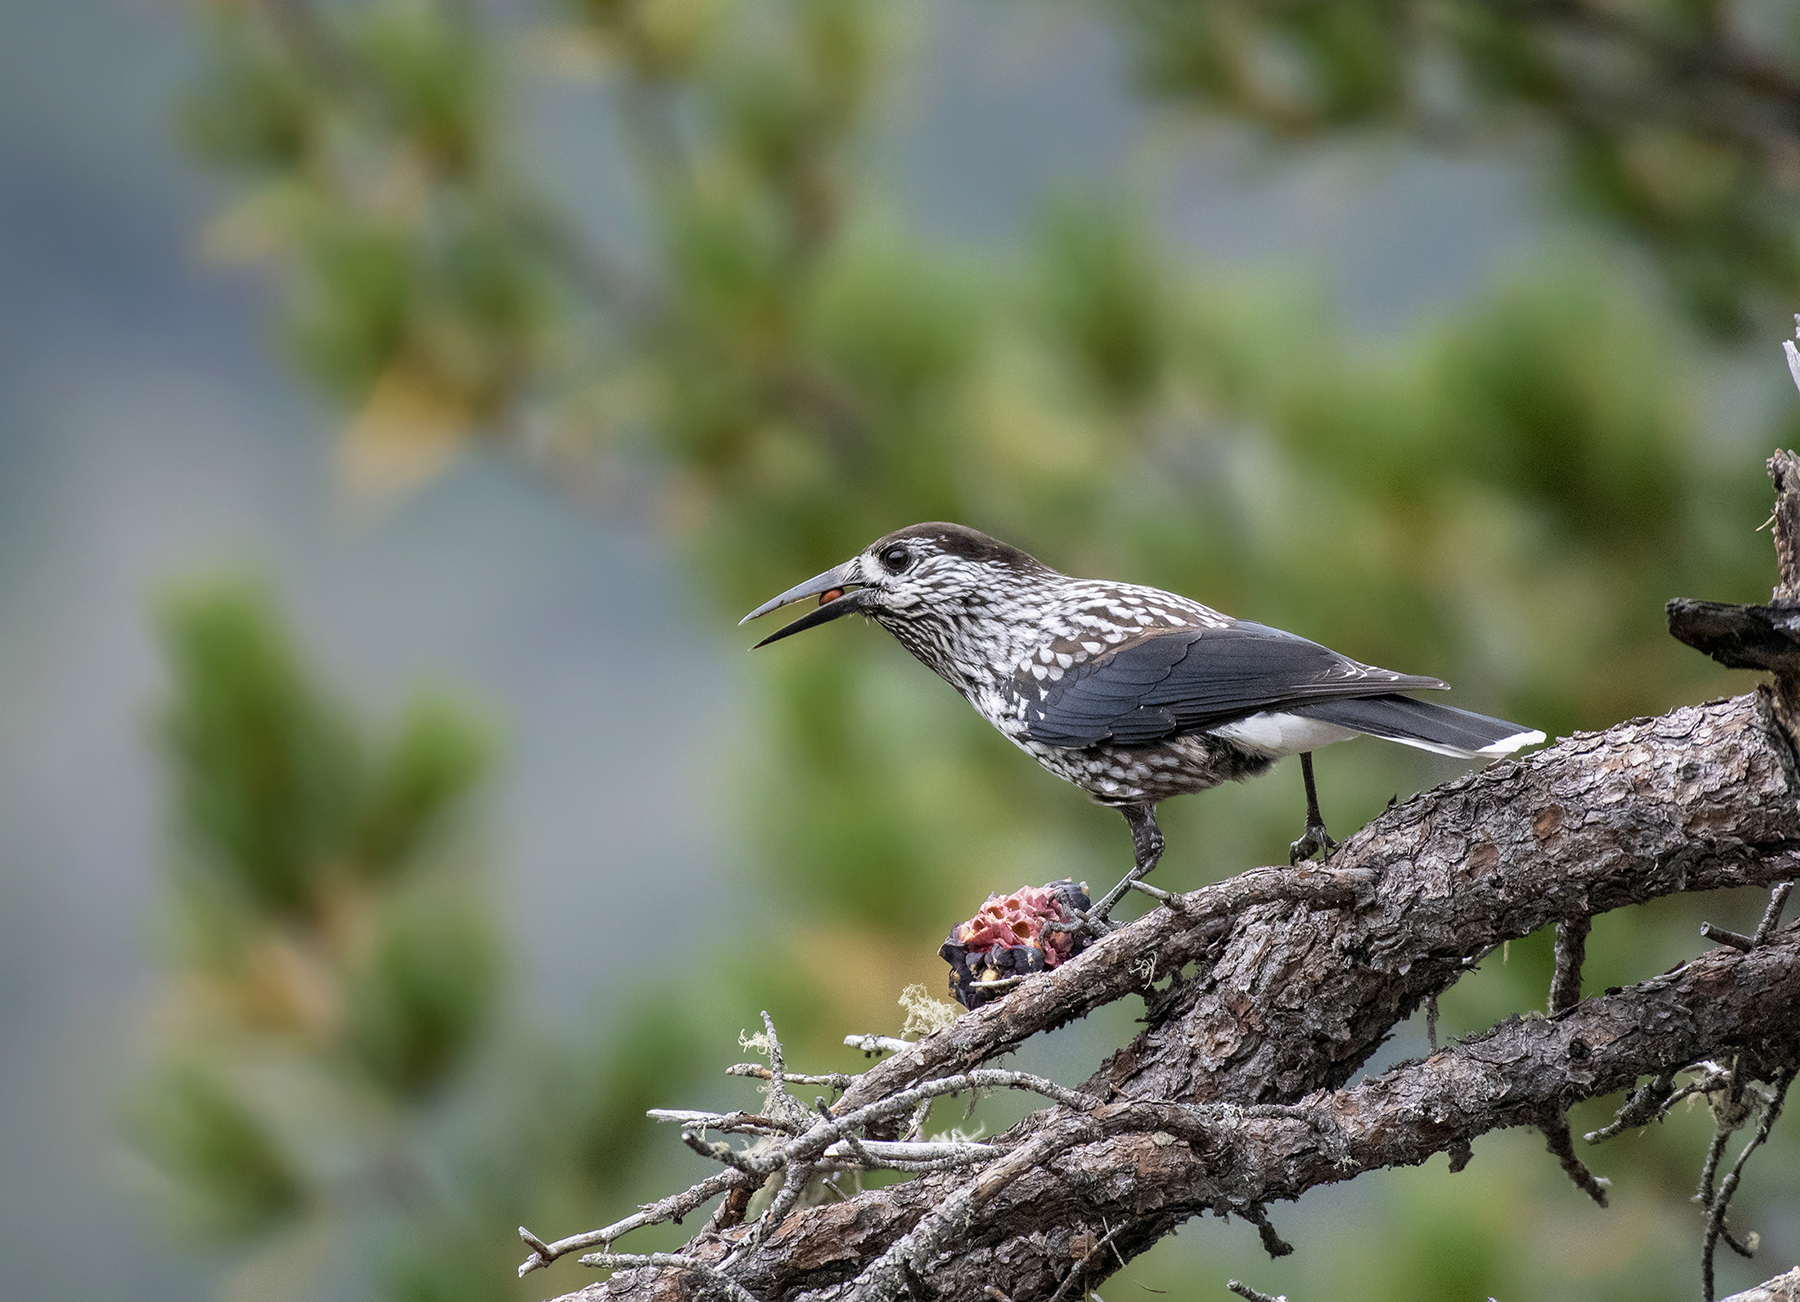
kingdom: Animalia
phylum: Chordata
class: Aves
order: Passeriformes
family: Corvidae
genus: Nucifraga
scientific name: Nucifraga caryocatactes
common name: Spotted nutcracker
